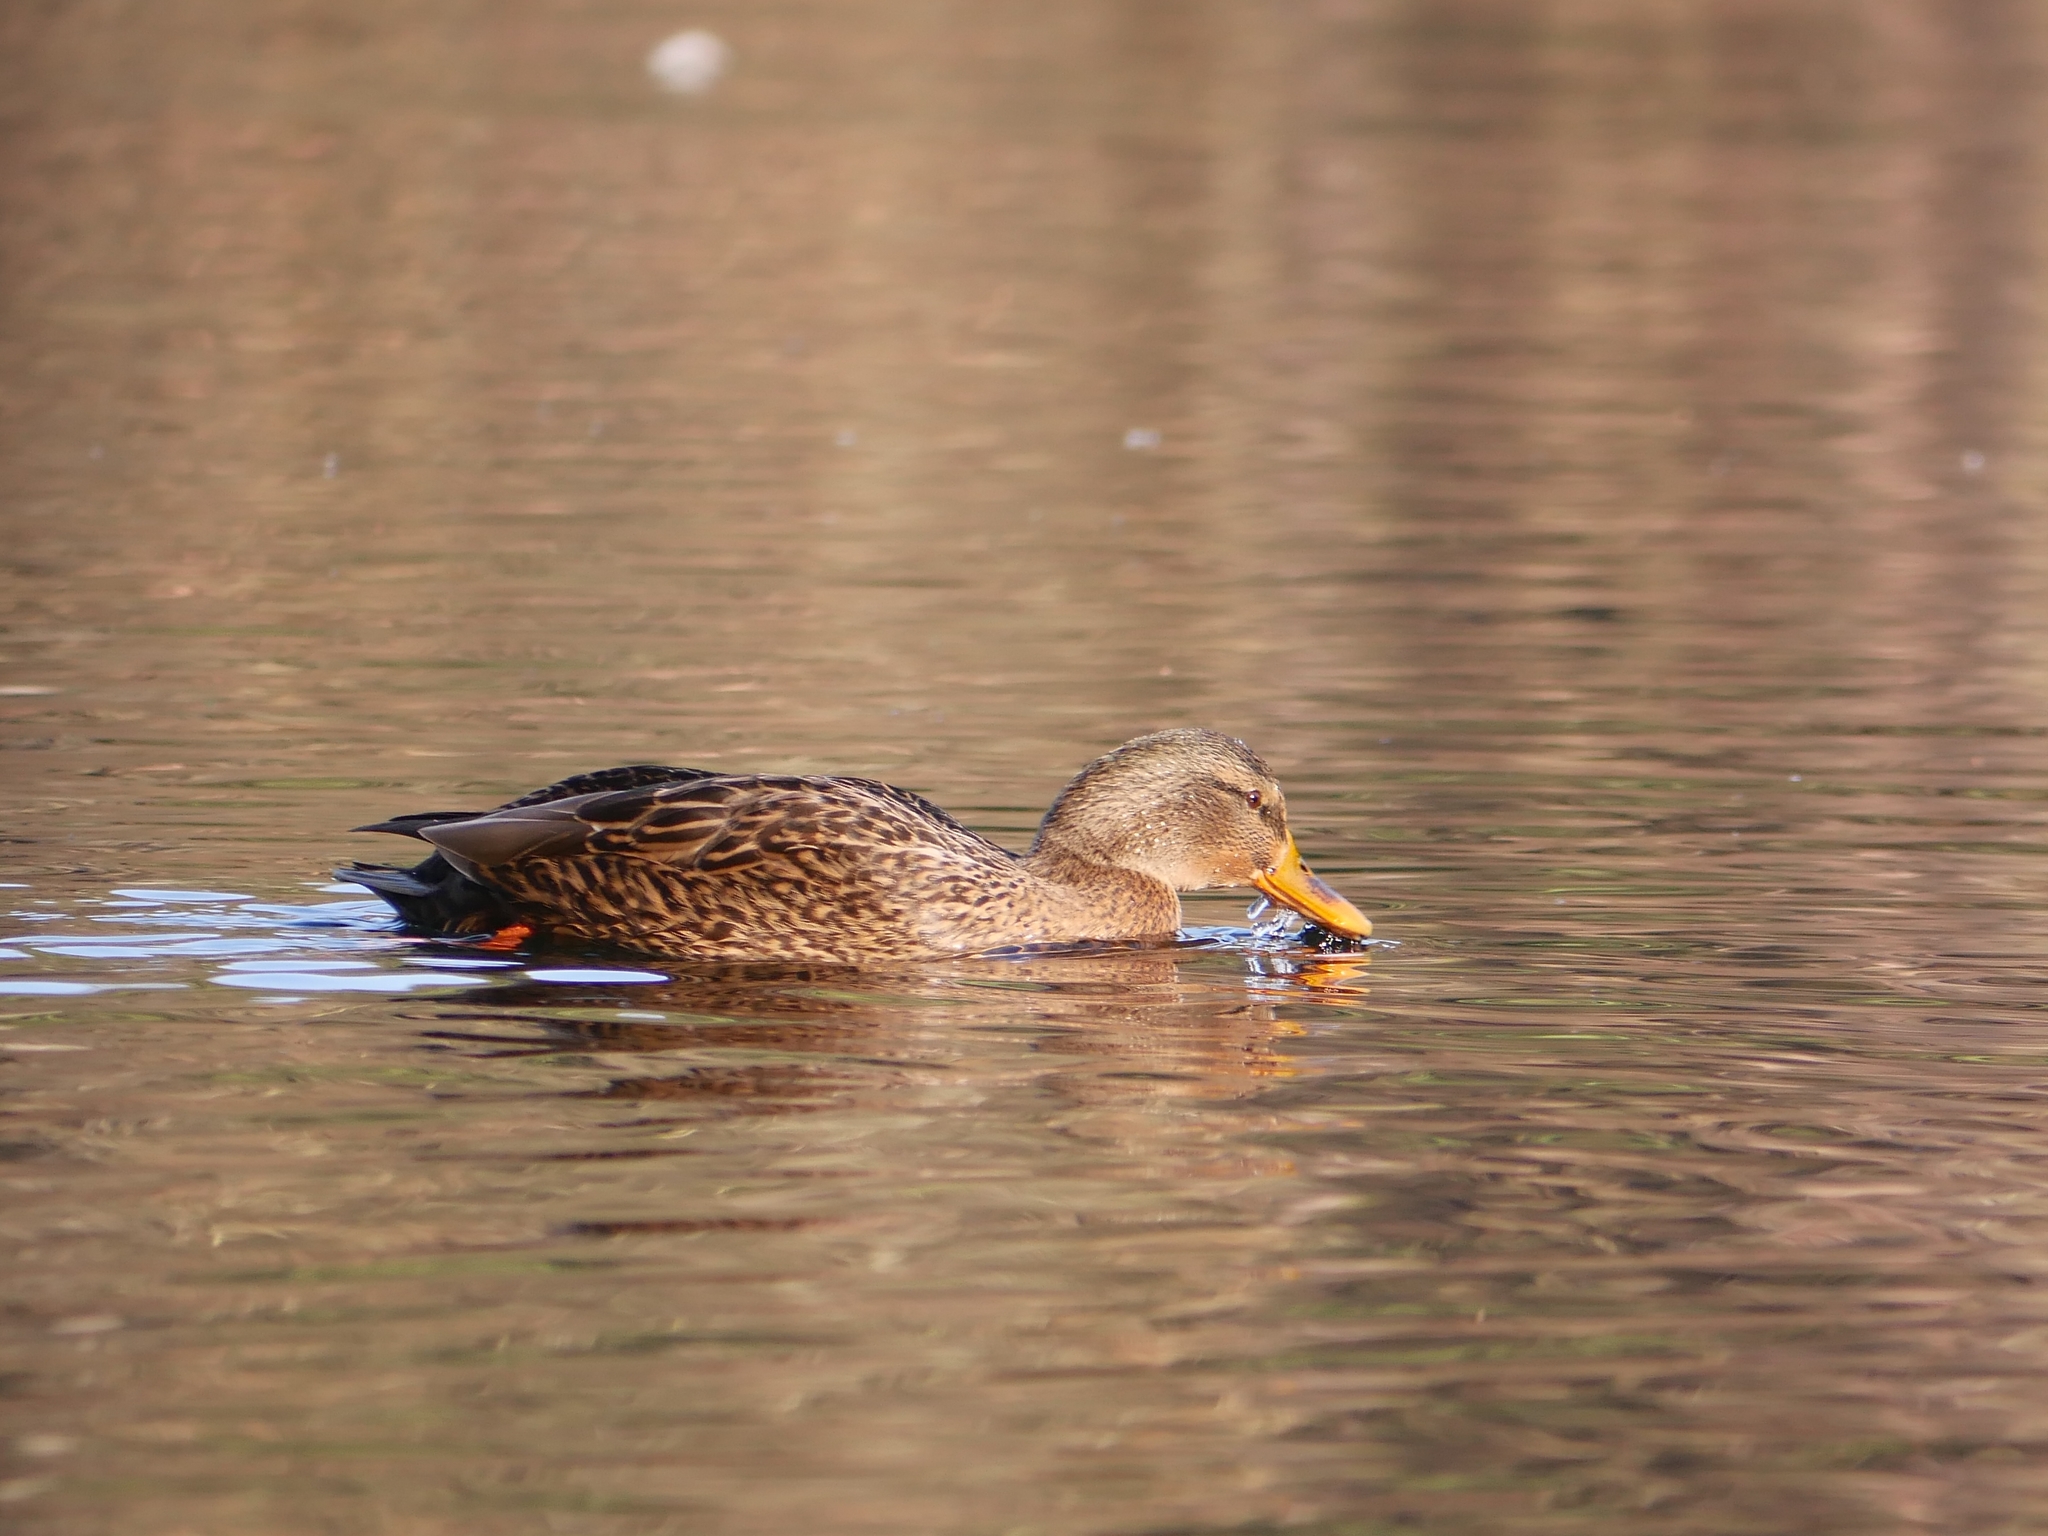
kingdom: Animalia
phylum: Chordata
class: Aves
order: Anseriformes
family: Anatidae
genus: Anas
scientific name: Anas platyrhynchos
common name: Mallard
